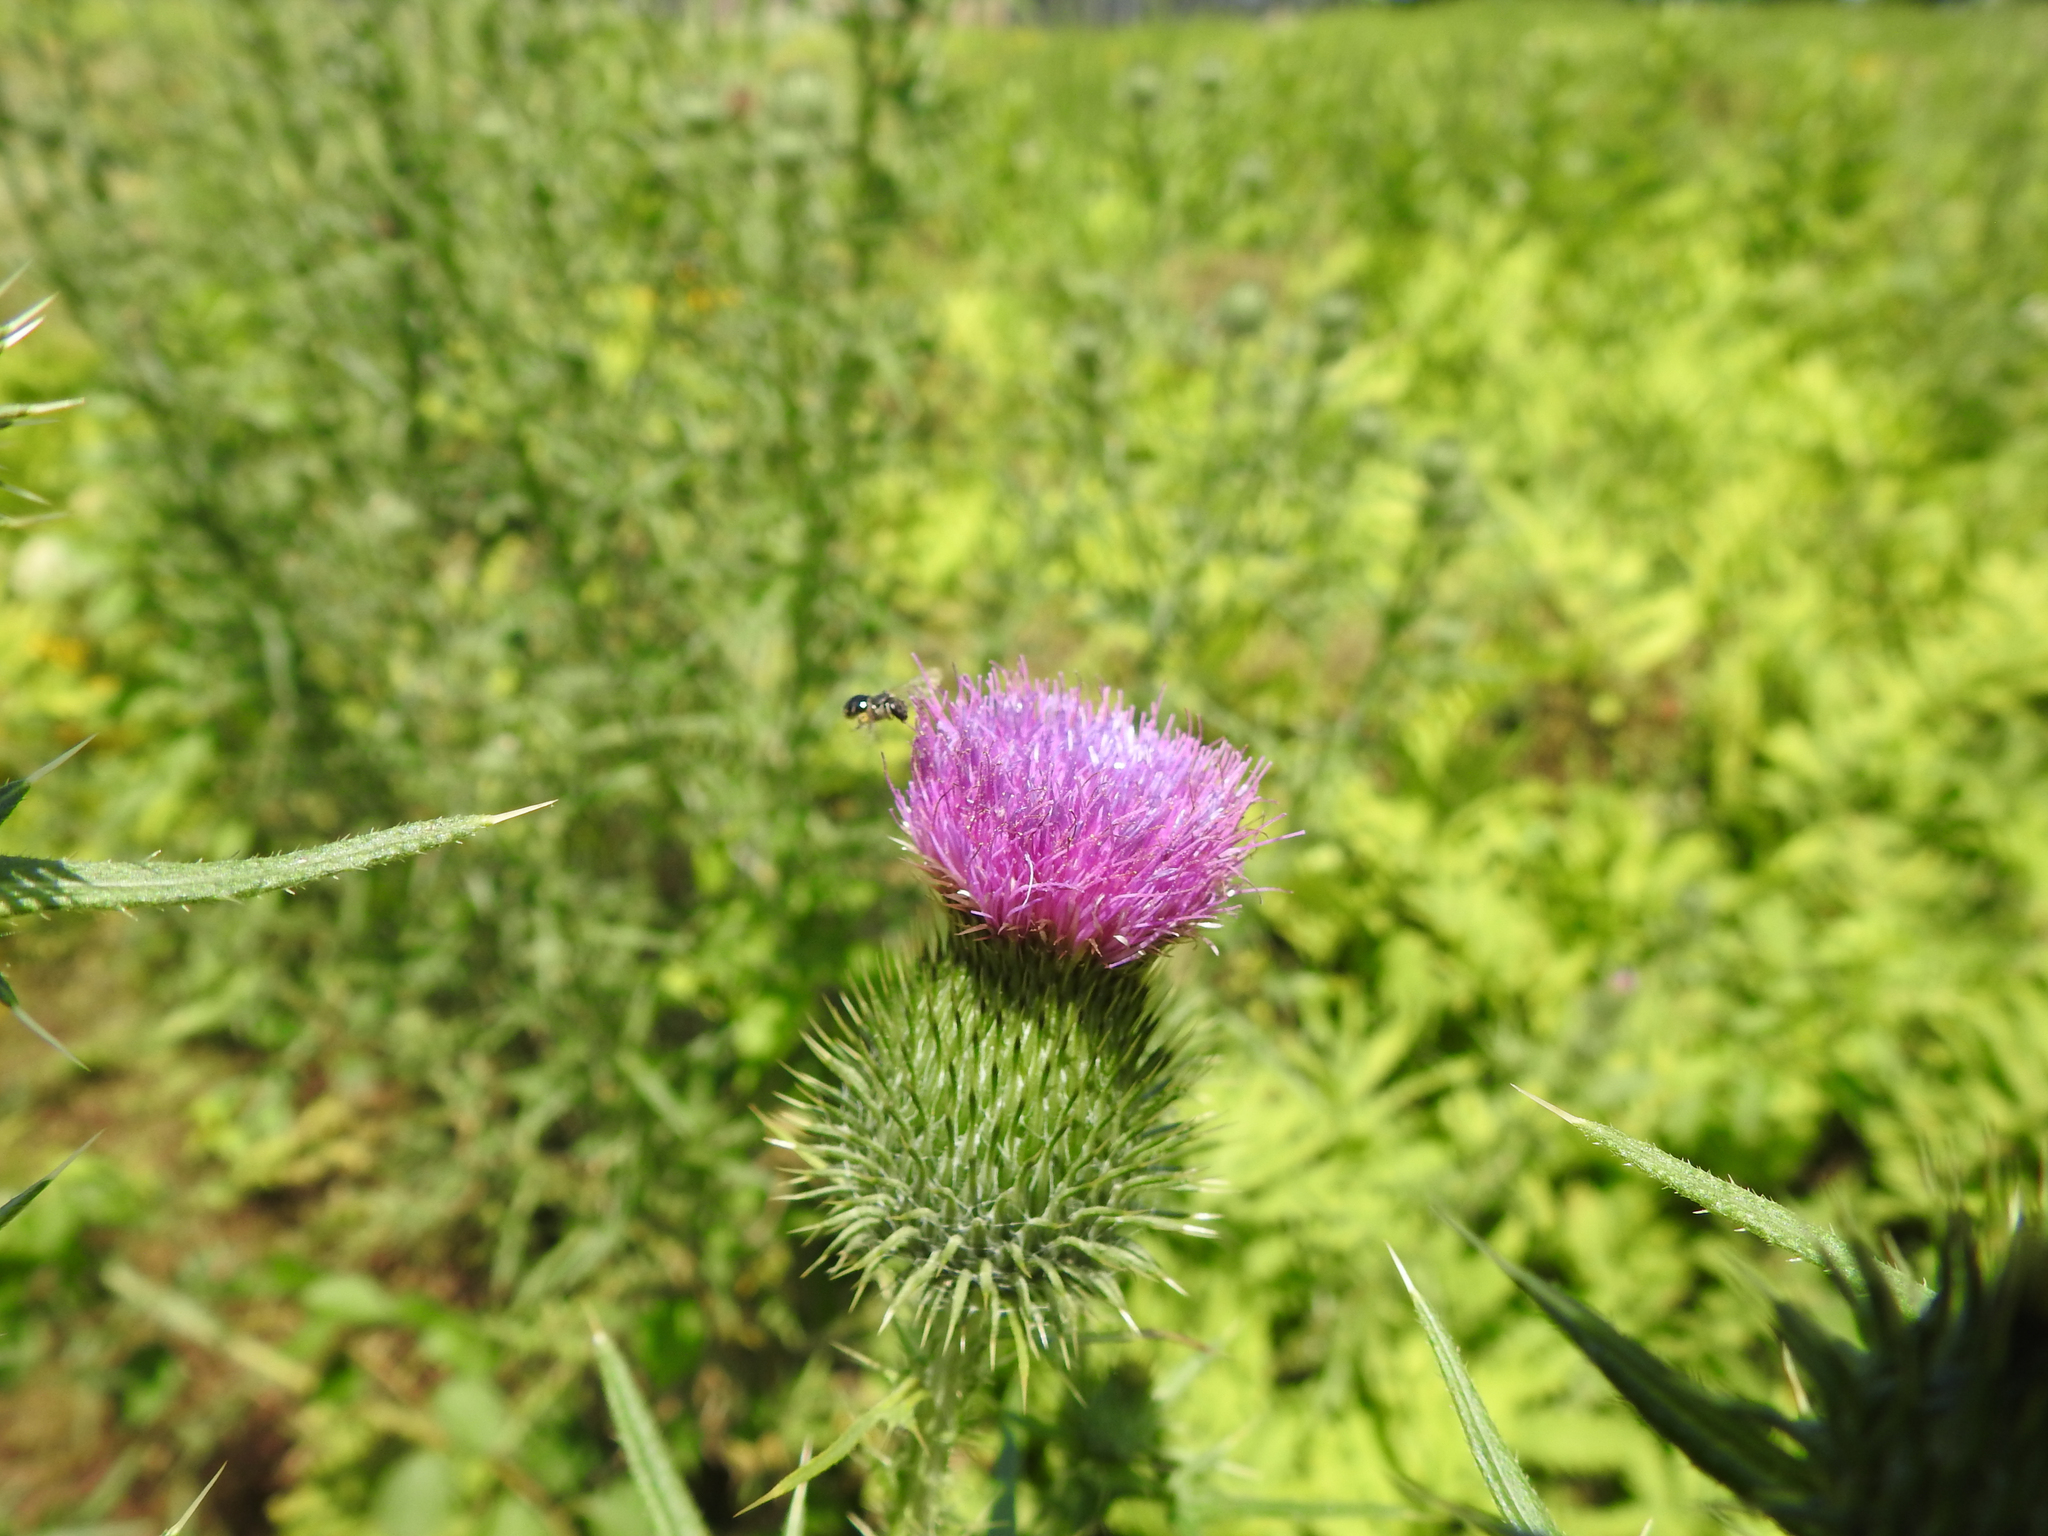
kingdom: Plantae
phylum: Tracheophyta
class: Magnoliopsida
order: Asterales
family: Asteraceae
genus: Cirsium
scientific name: Cirsium vulgare
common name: Bull thistle
